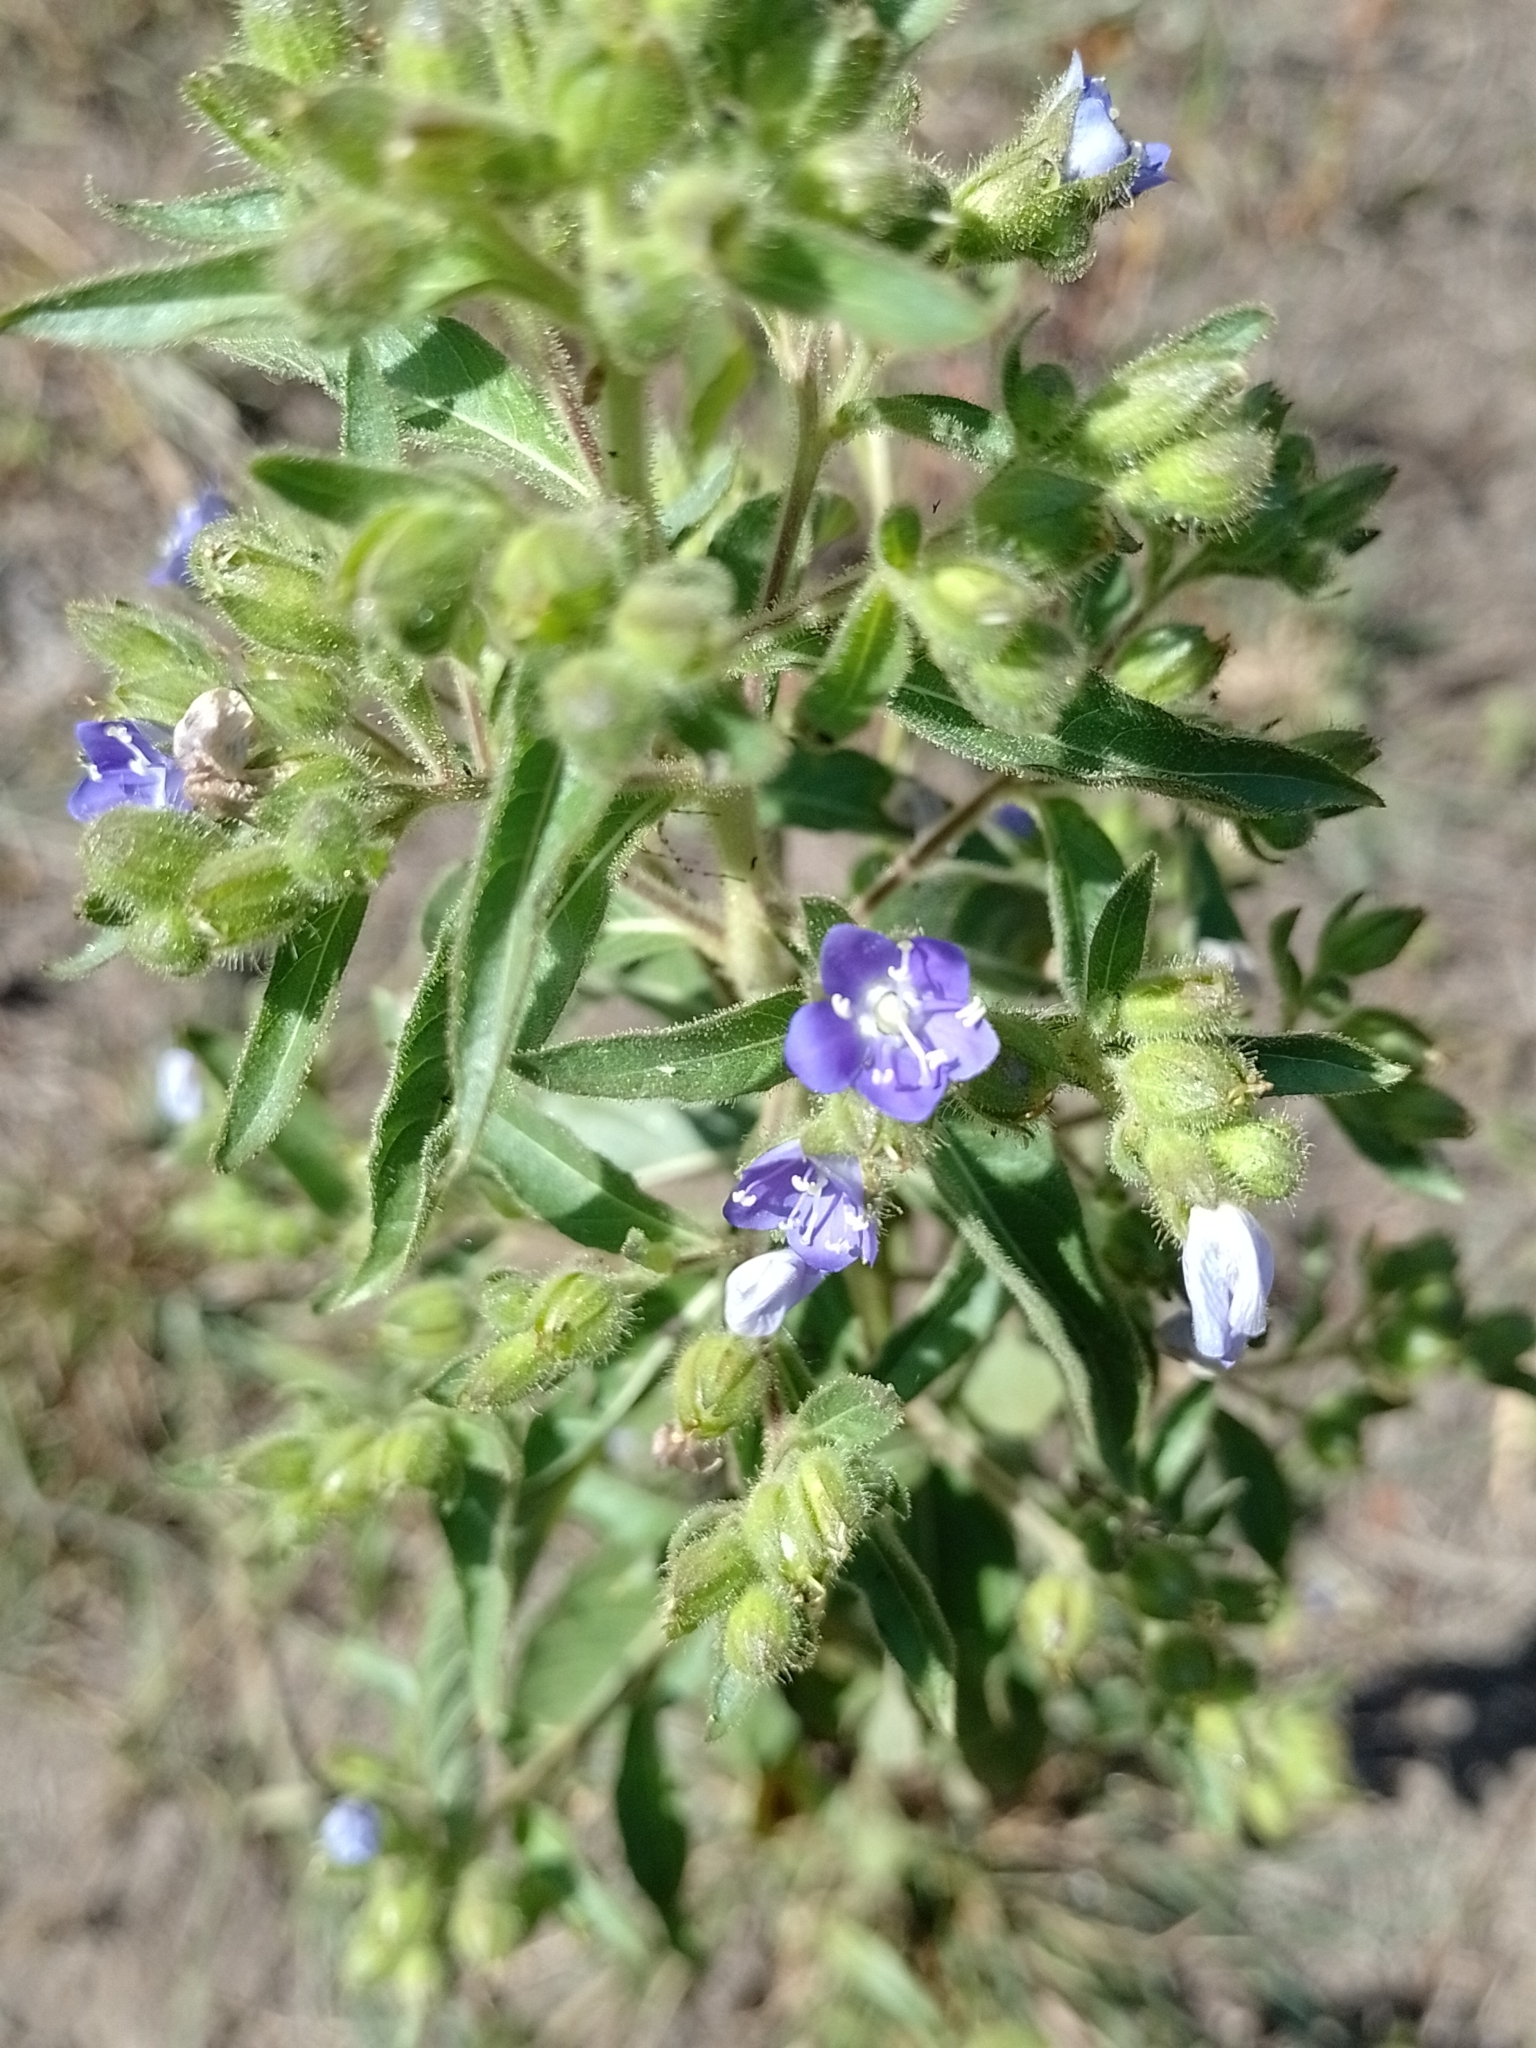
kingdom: Plantae
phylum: Tracheophyta
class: Magnoliopsida
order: Solanales
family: Hydroleaceae
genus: Hydrolea
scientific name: Hydrolea spinosa
